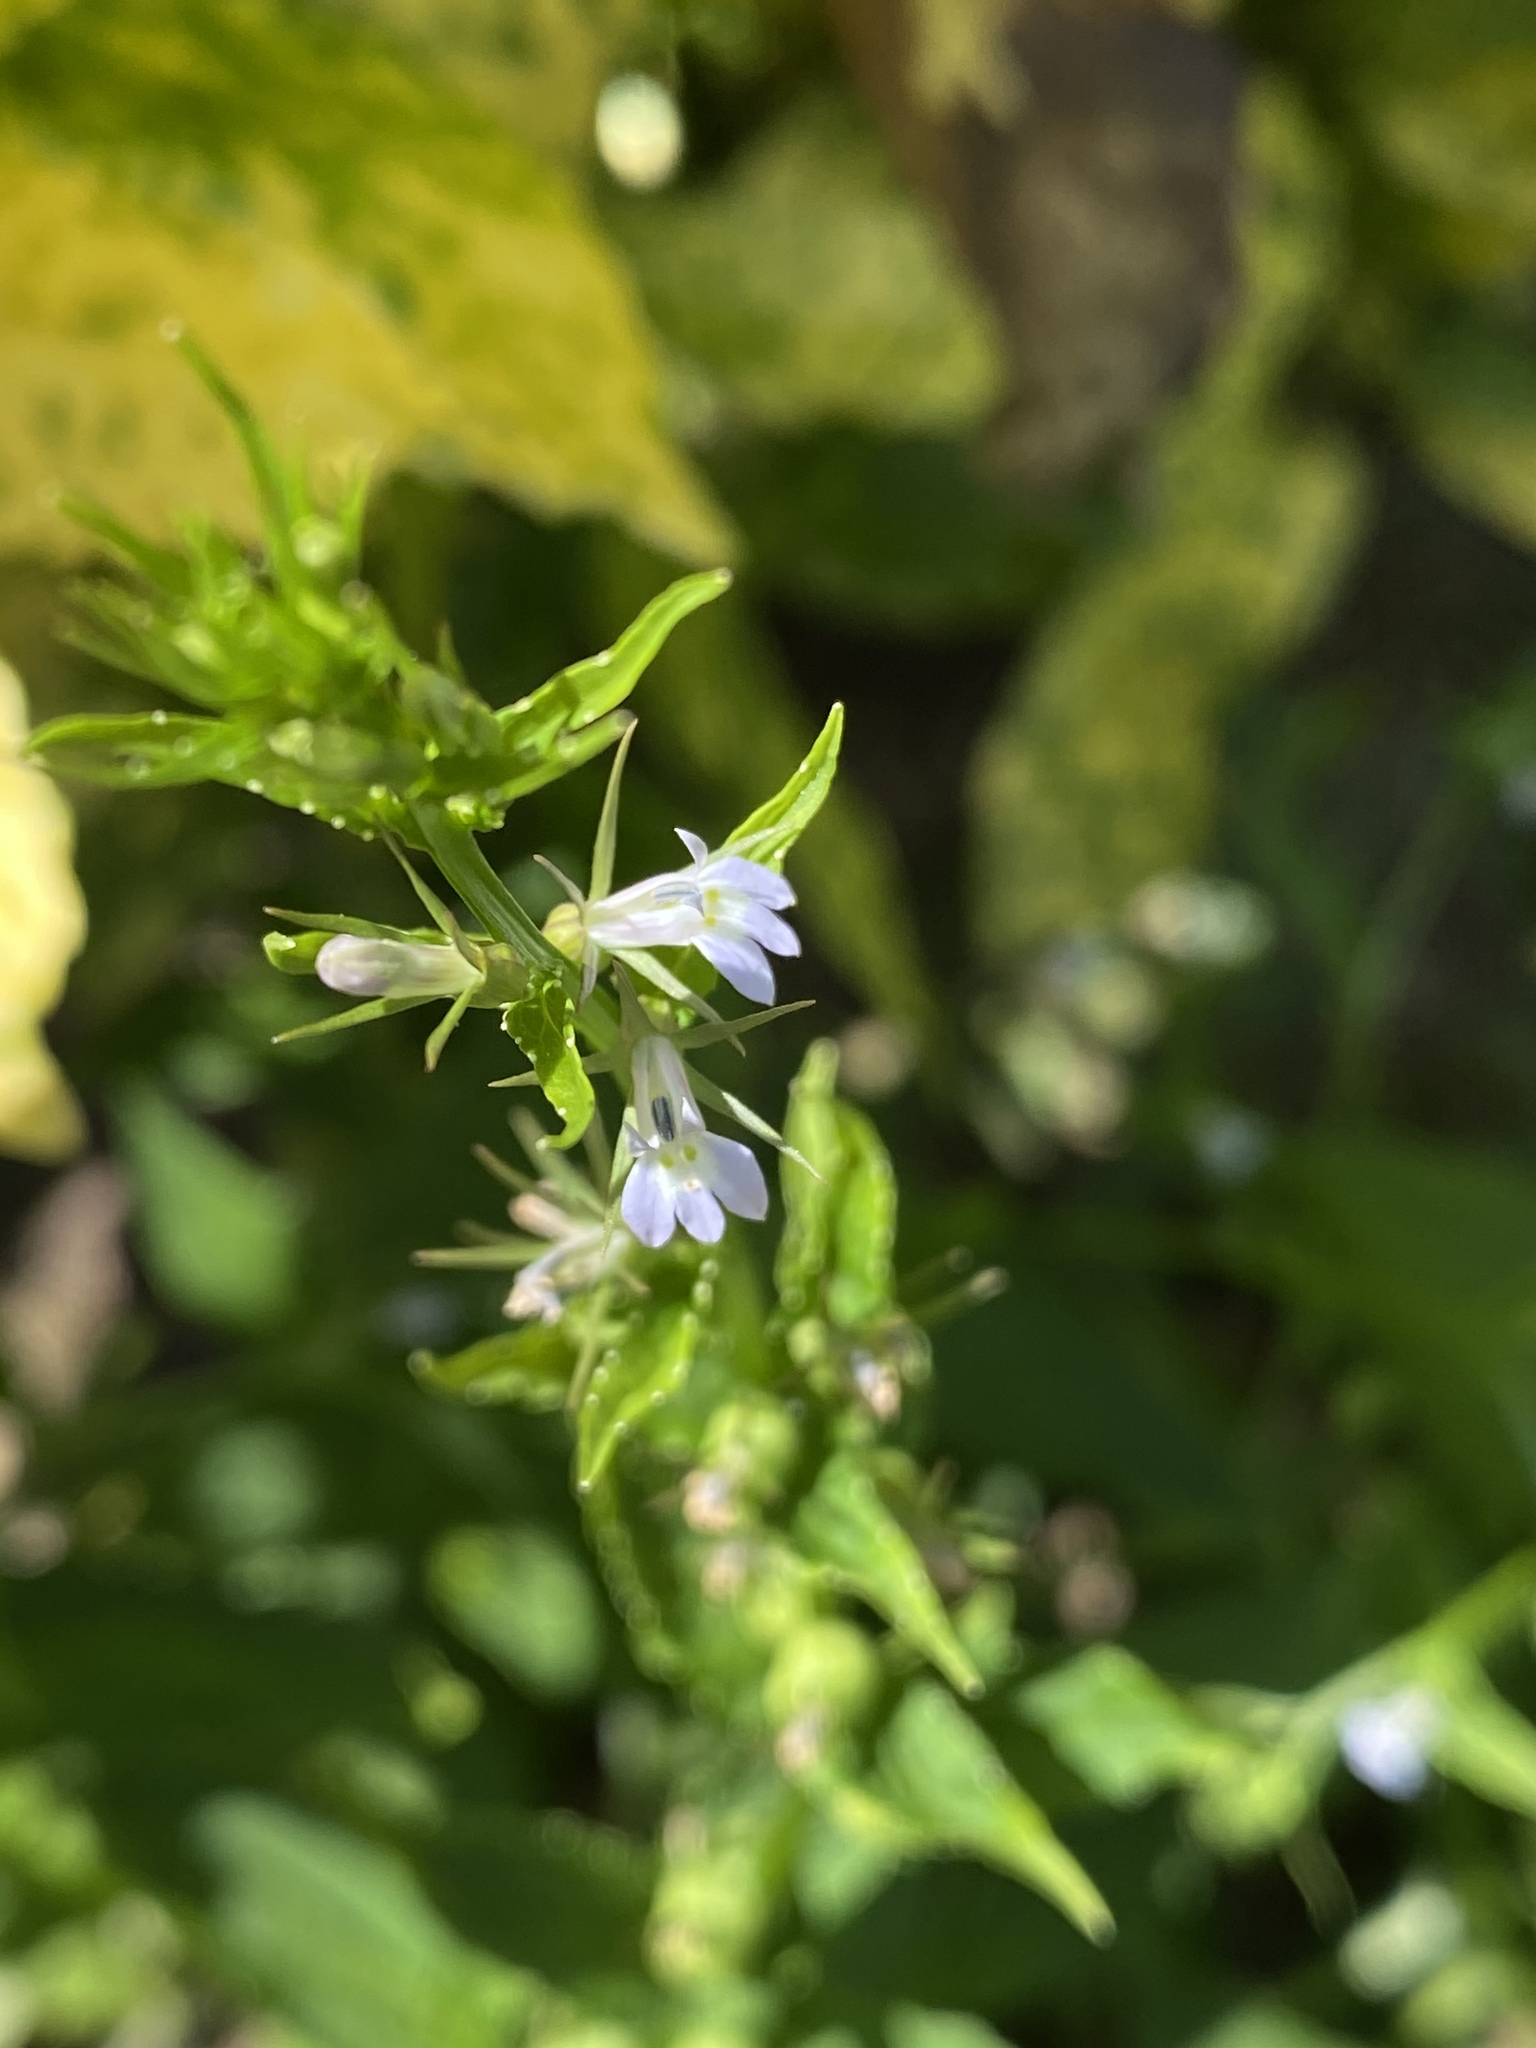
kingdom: Plantae
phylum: Tracheophyta
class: Magnoliopsida
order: Asterales
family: Campanulaceae
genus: Lobelia
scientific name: Lobelia inflata
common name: Indian tobacco
